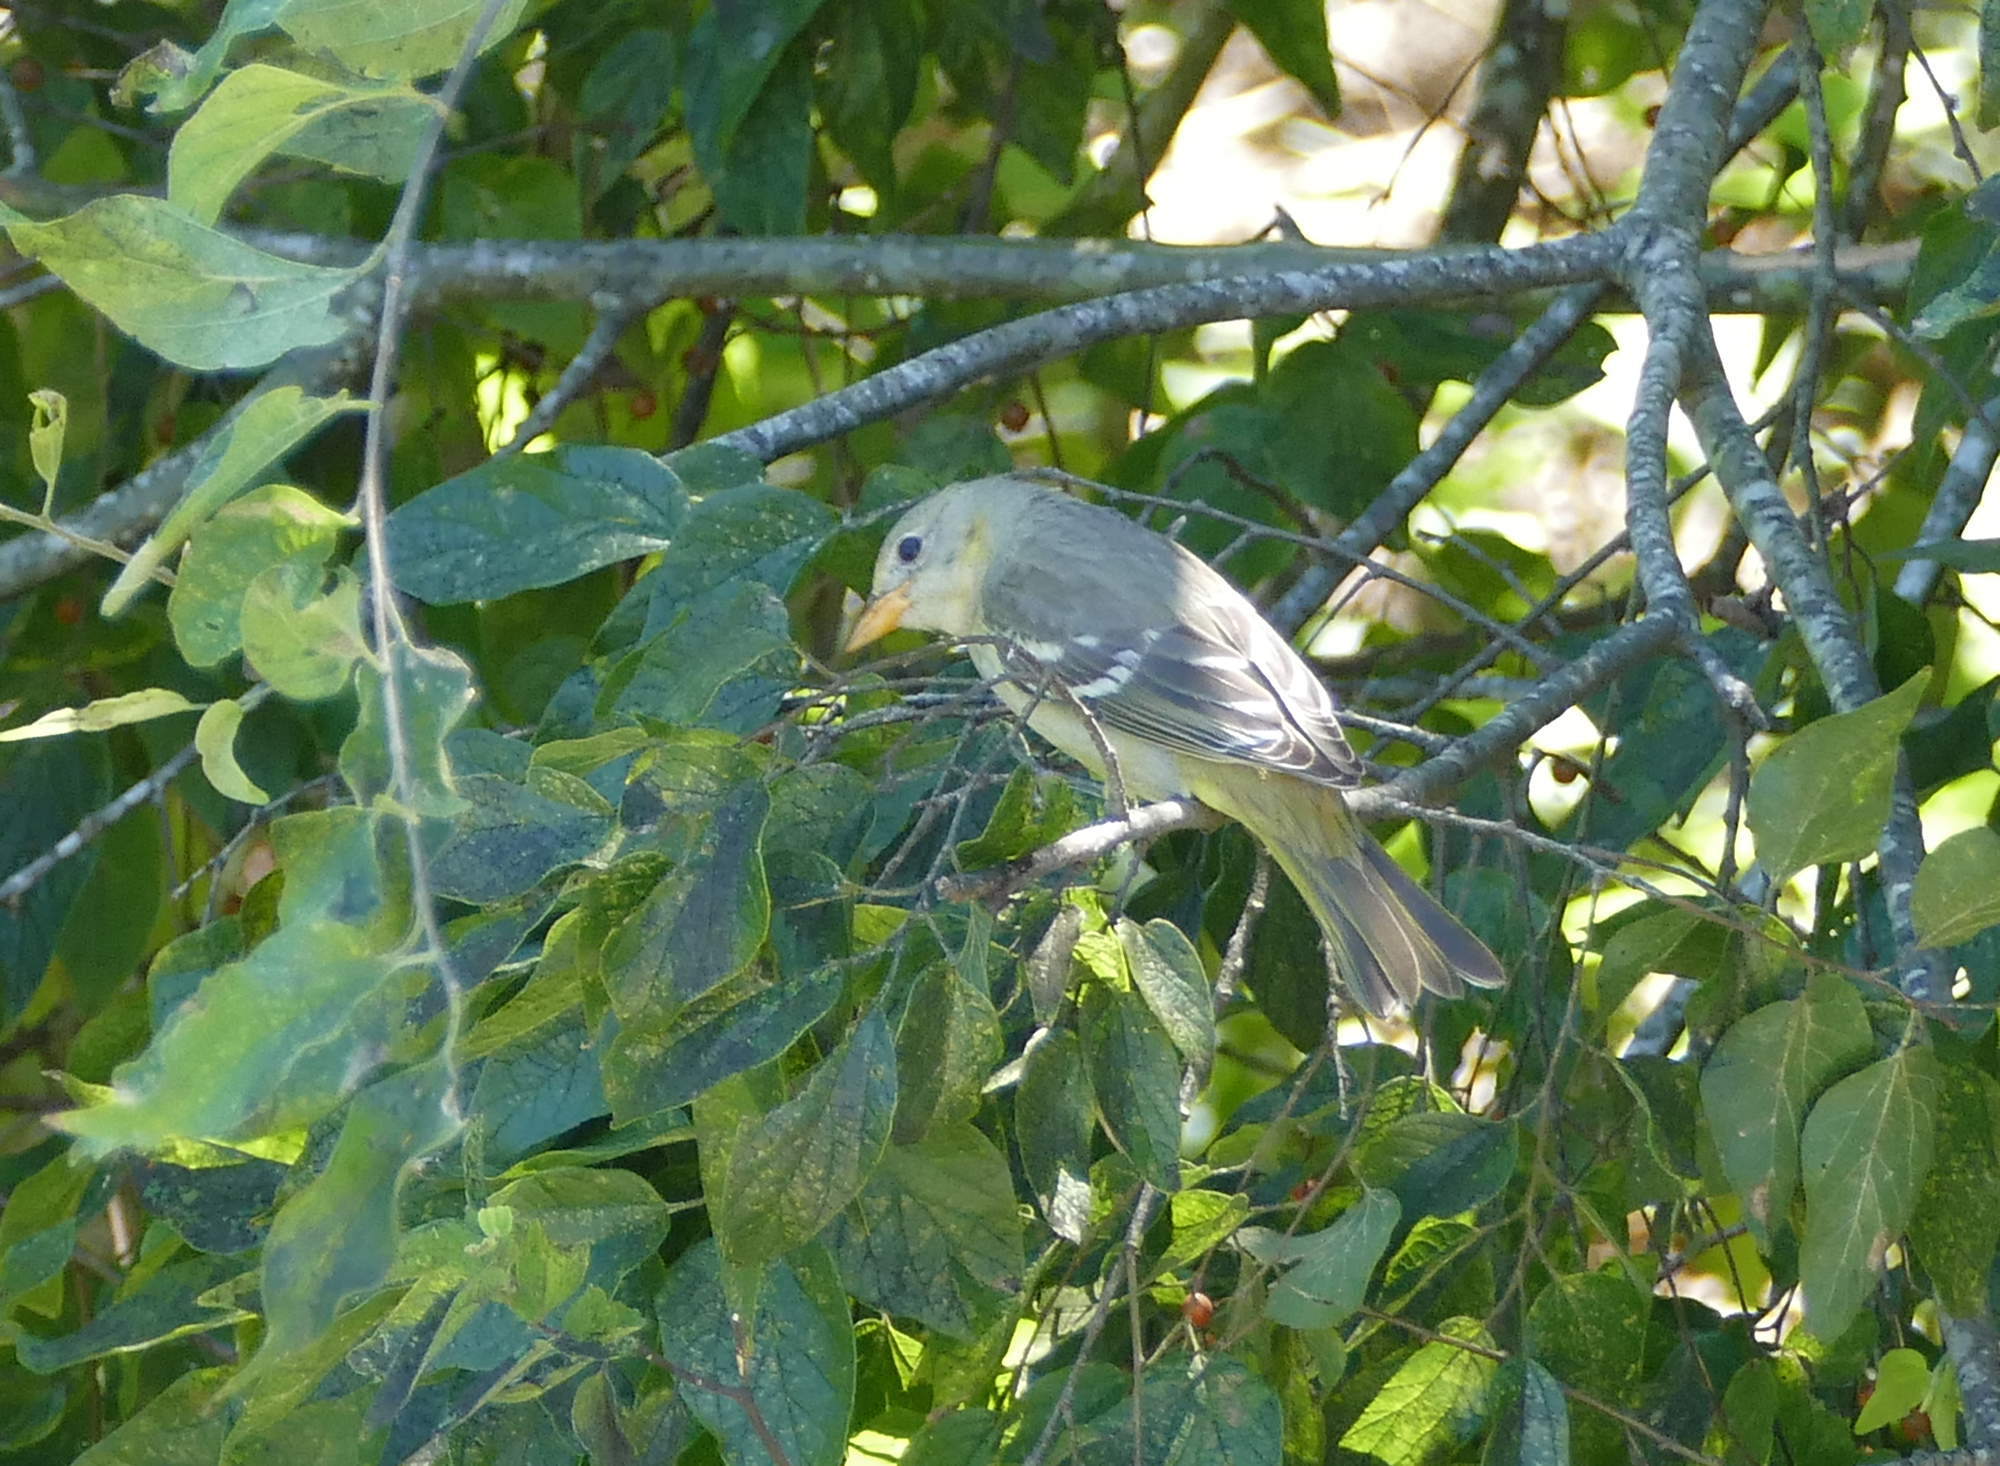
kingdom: Animalia
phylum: Chordata
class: Aves
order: Passeriformes
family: Cardinalidae
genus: Piranga
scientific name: Piranga ludoviciana
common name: Western tanager
